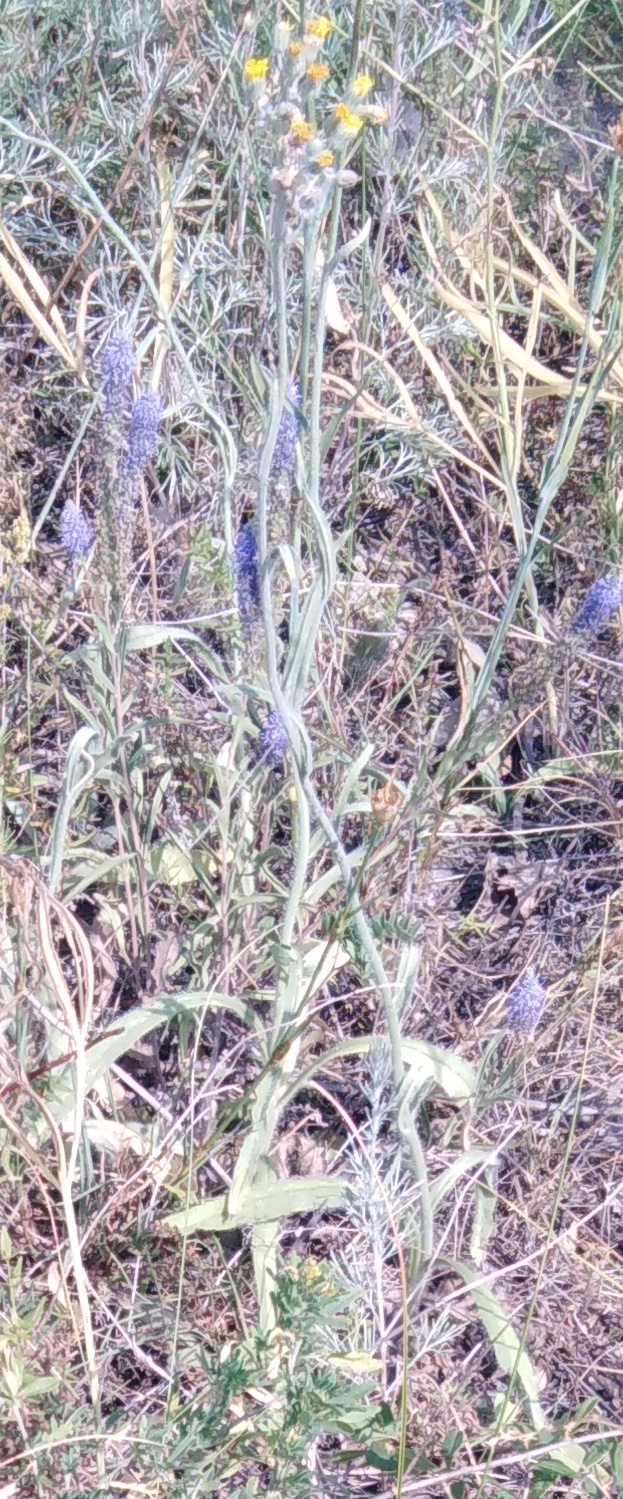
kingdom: Plantae
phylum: Tracheophyta
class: Magnoliopsida
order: Asterales
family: Asteraceae
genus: Pilosella
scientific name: Pilosella echioides
